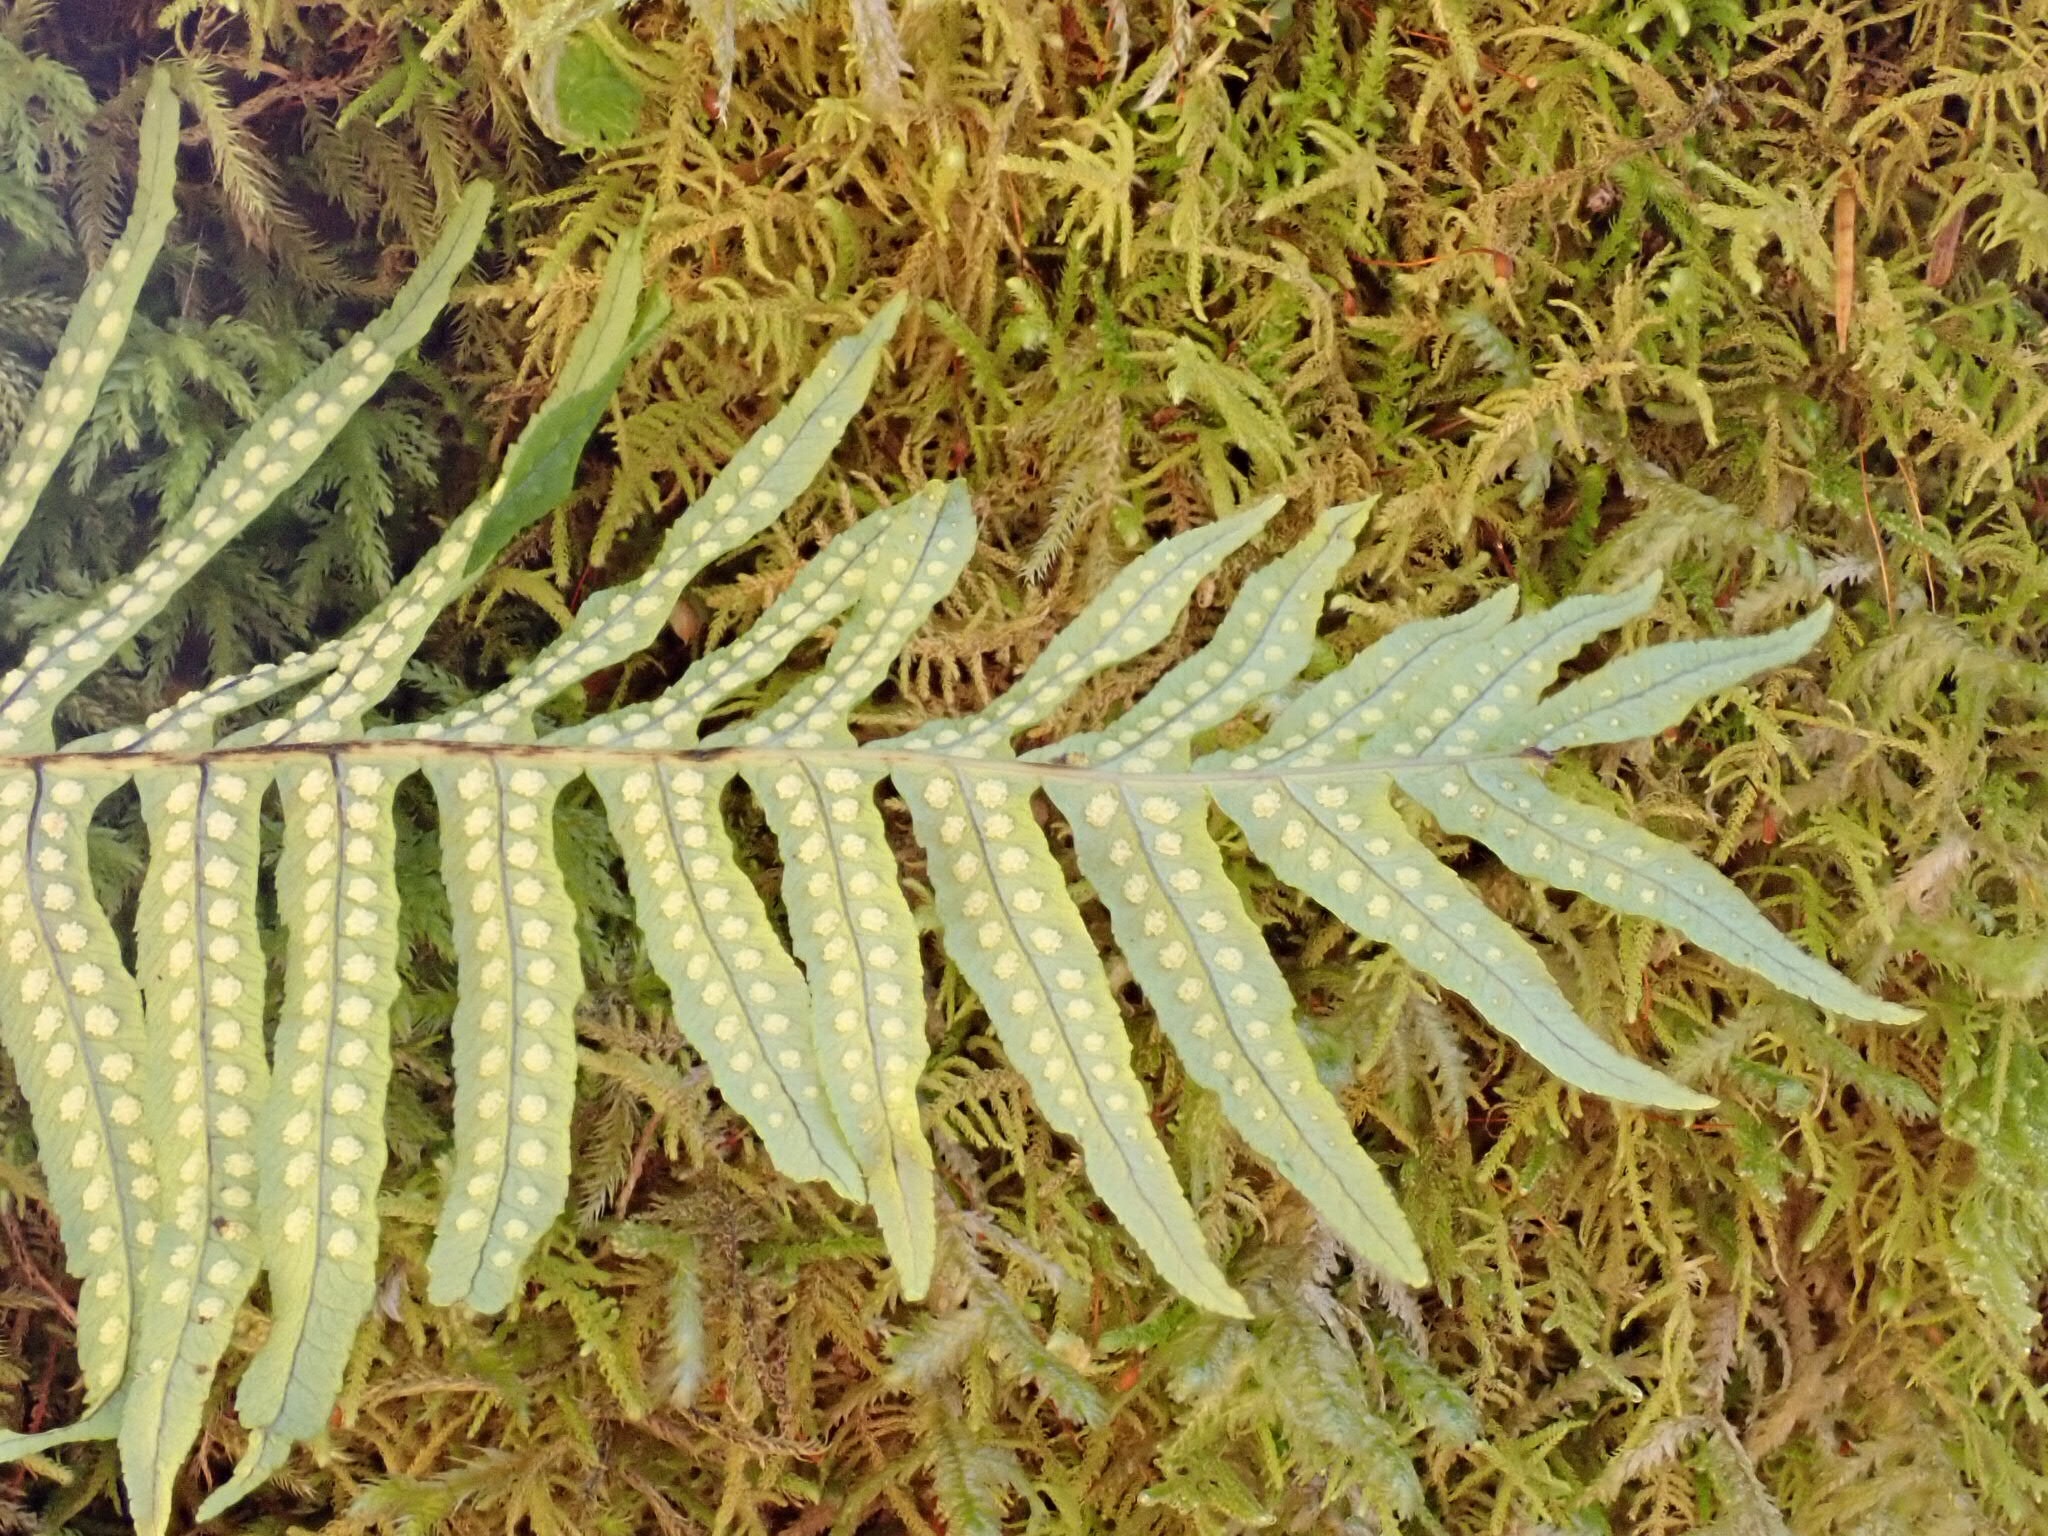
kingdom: Plantae
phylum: Tracheophyta
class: Polypodiopsida
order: Polypodiales
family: Polypodiaceae
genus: Polypodium
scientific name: Polypodium glycyrrhiza
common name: Licorice fern
